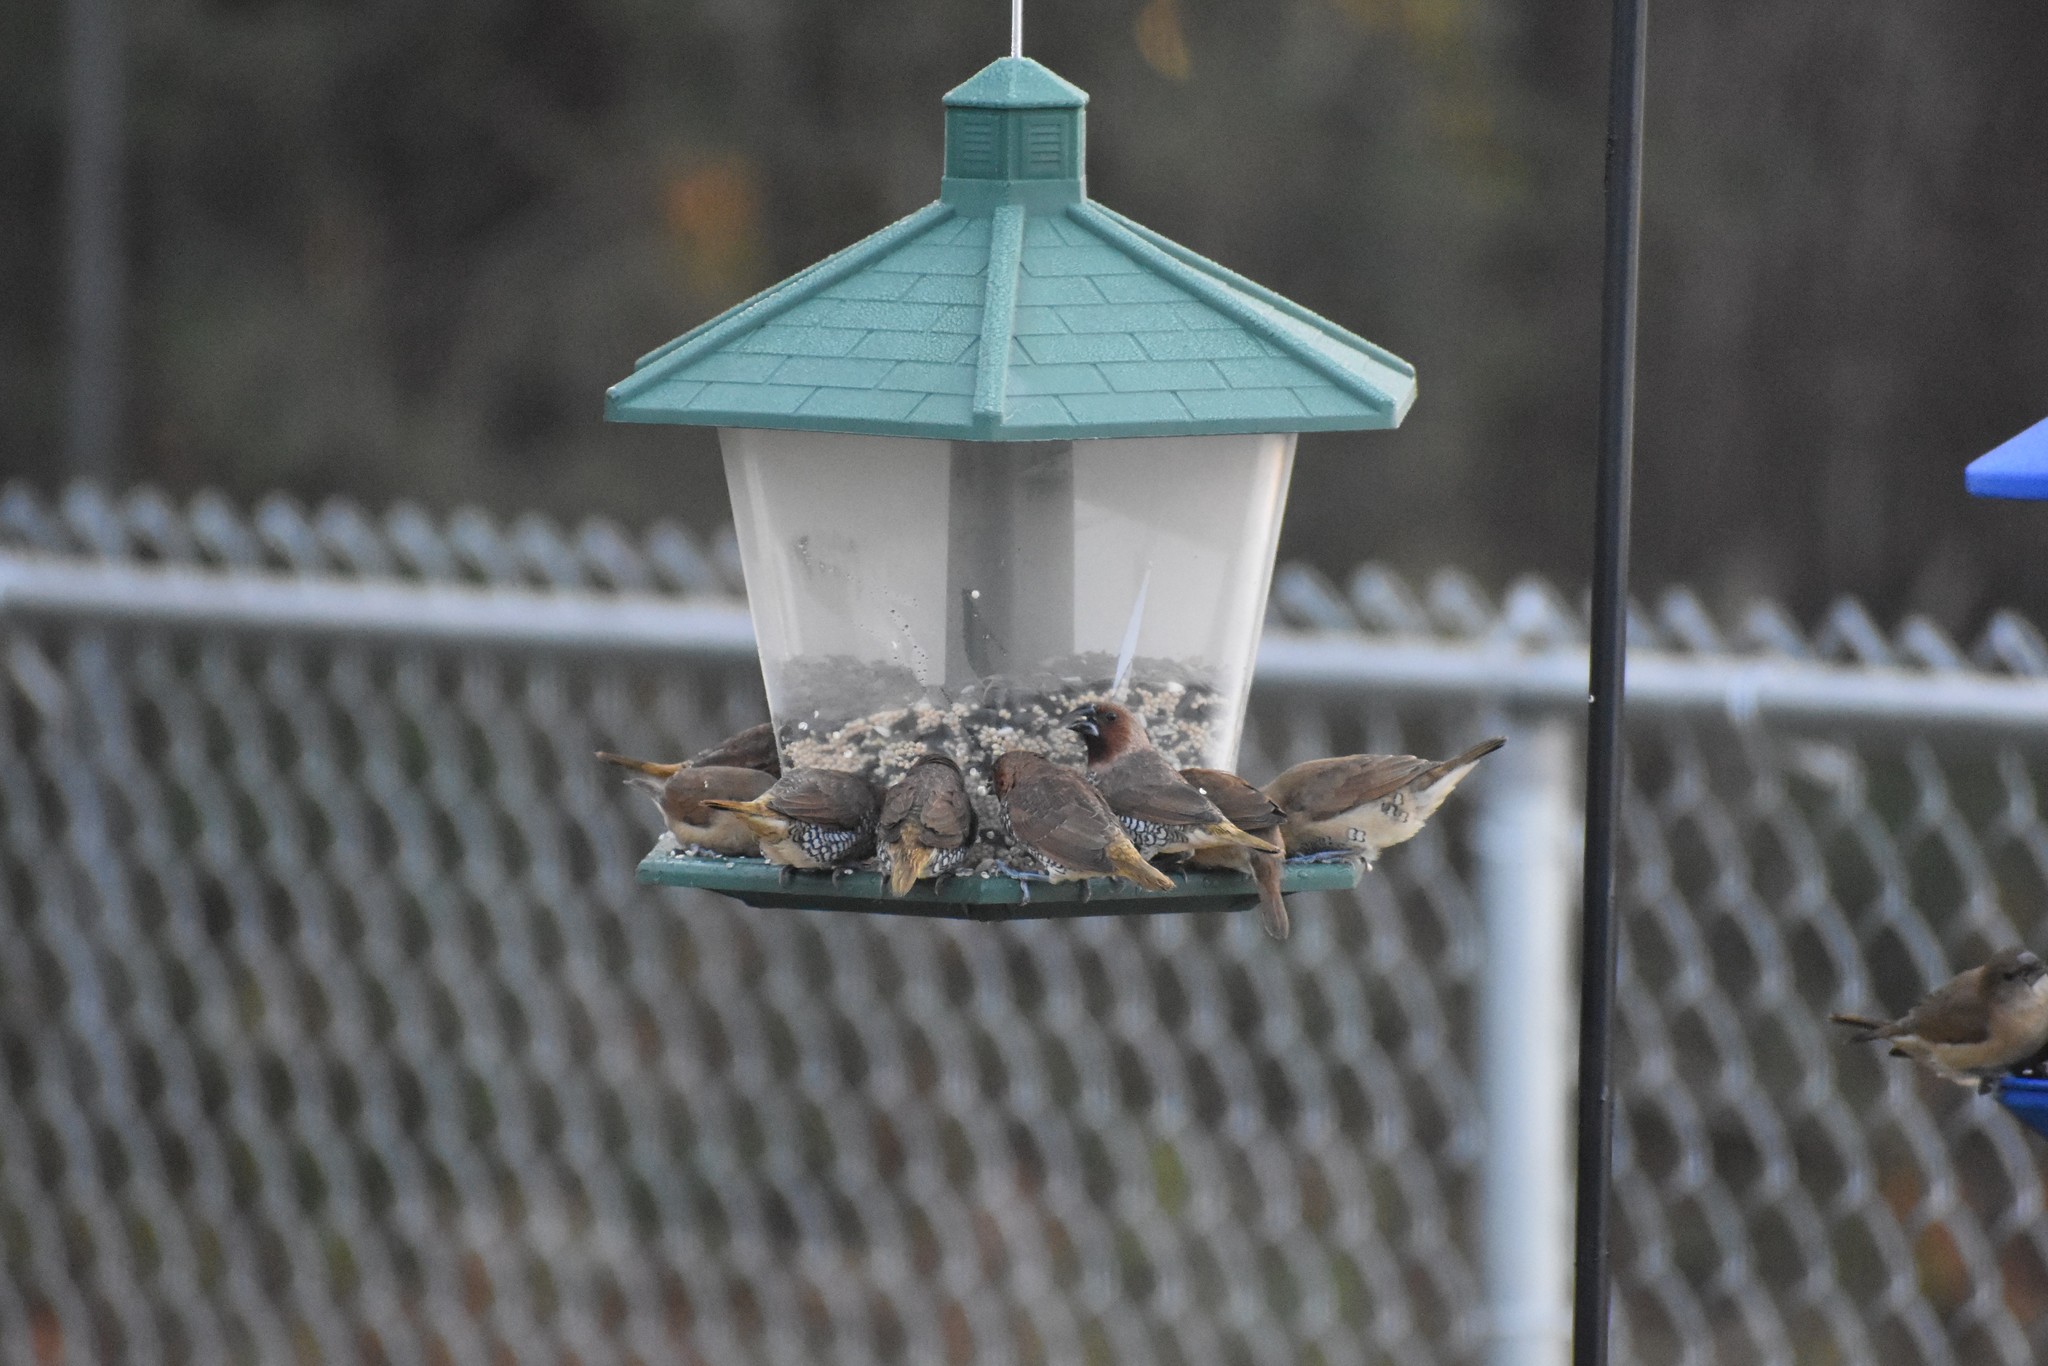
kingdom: Animalia
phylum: Chordata
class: Aves
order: Passeriformes
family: Estrildidae
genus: Lonchura
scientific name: Lonchura punctulata
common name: Scaly-breasted munia
